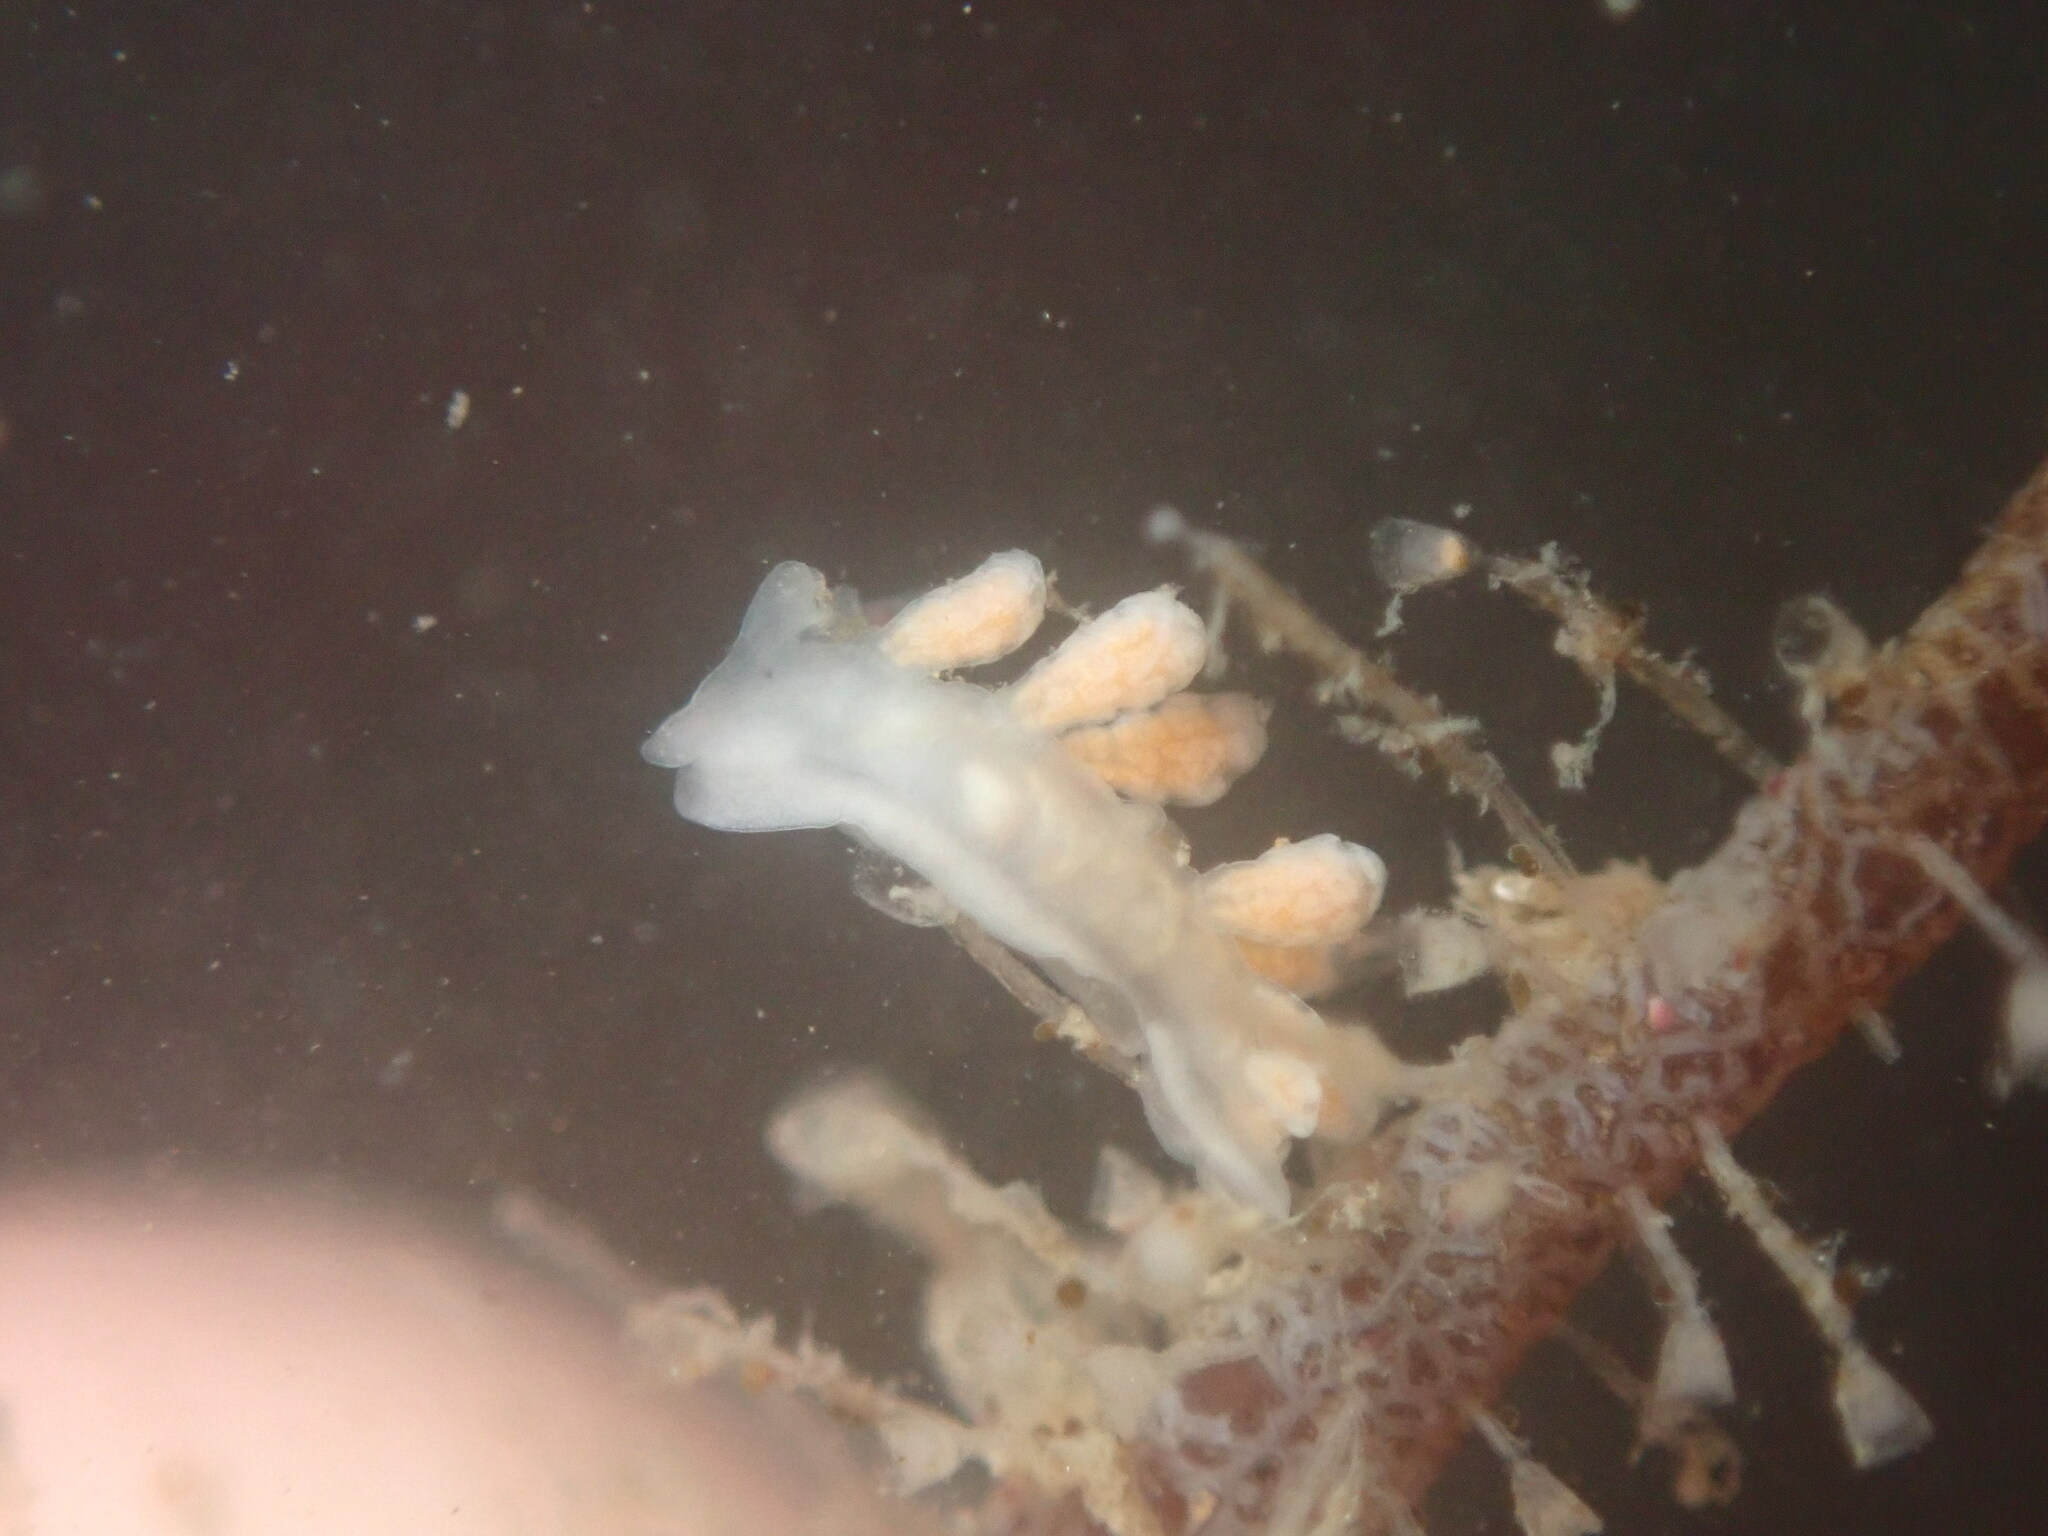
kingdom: Animalia
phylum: Mollusca
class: Gastropoda
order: Nudibranchia
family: Dotidae
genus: Doto
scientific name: Doto amyra
